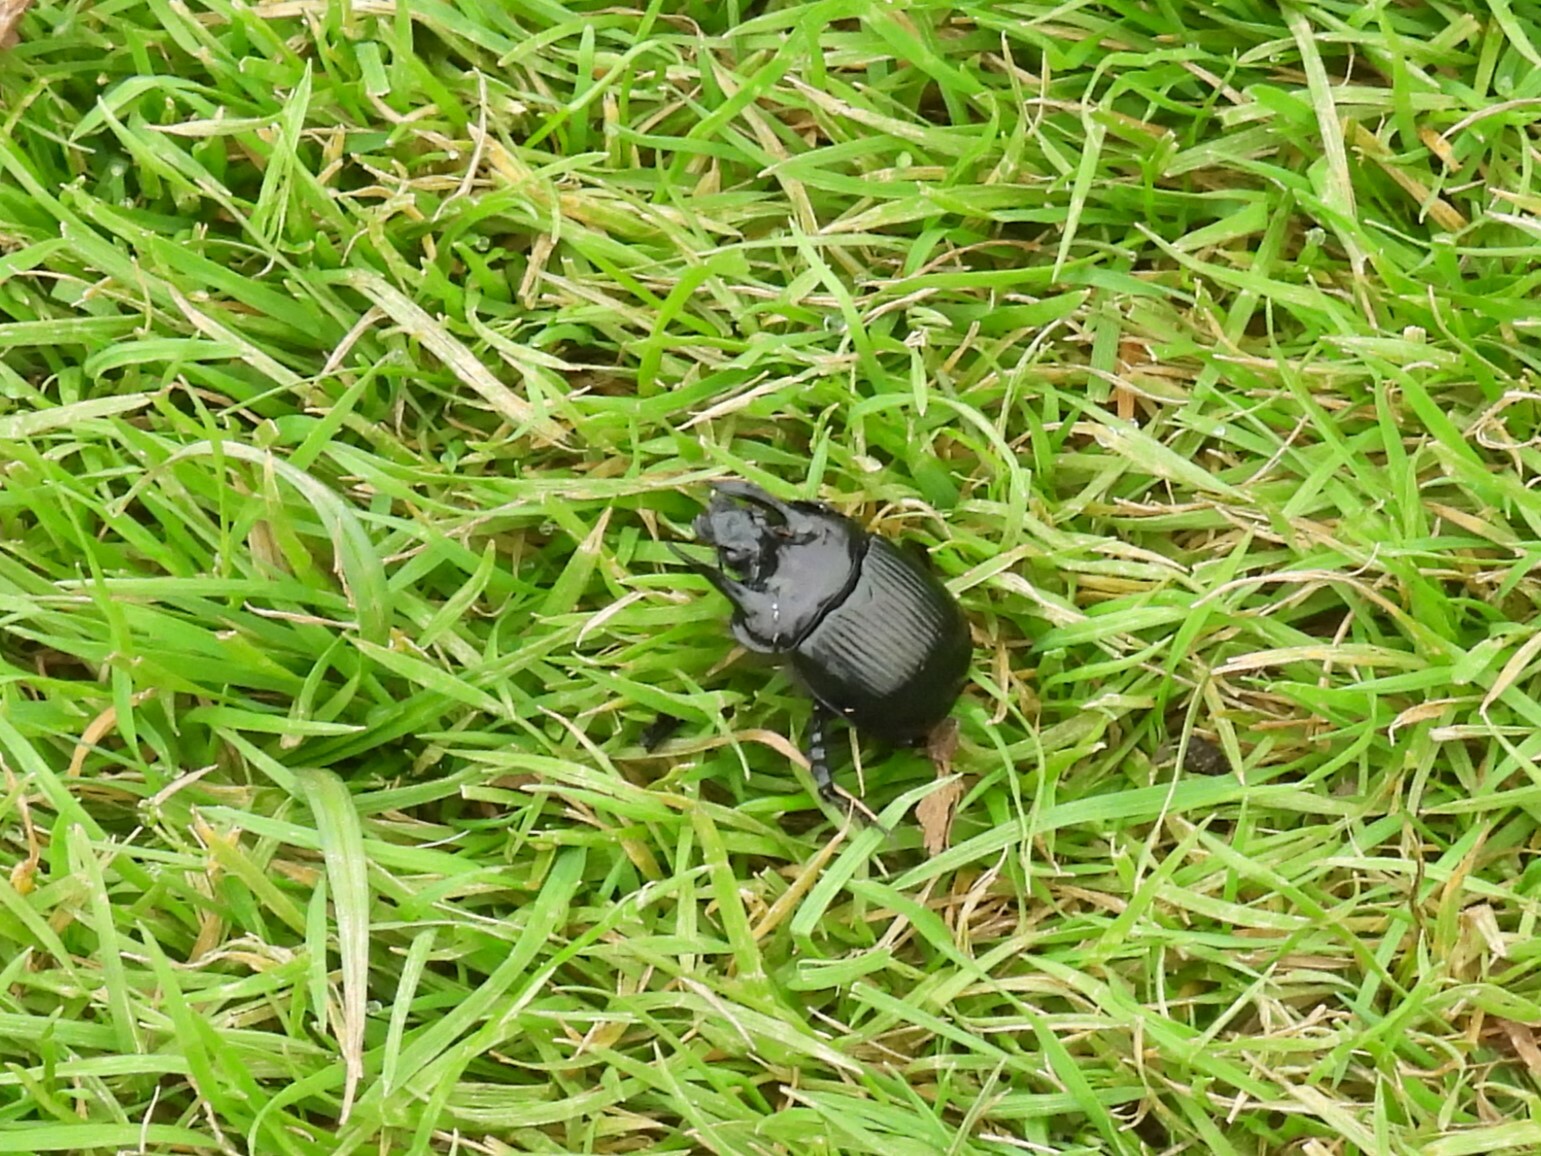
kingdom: Animalia
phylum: Arthropoda
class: Insecta
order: Coleoptera
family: Geotrupidae
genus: Typhaeus
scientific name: Typhaeus typhoeus
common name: Minotaur beetle
